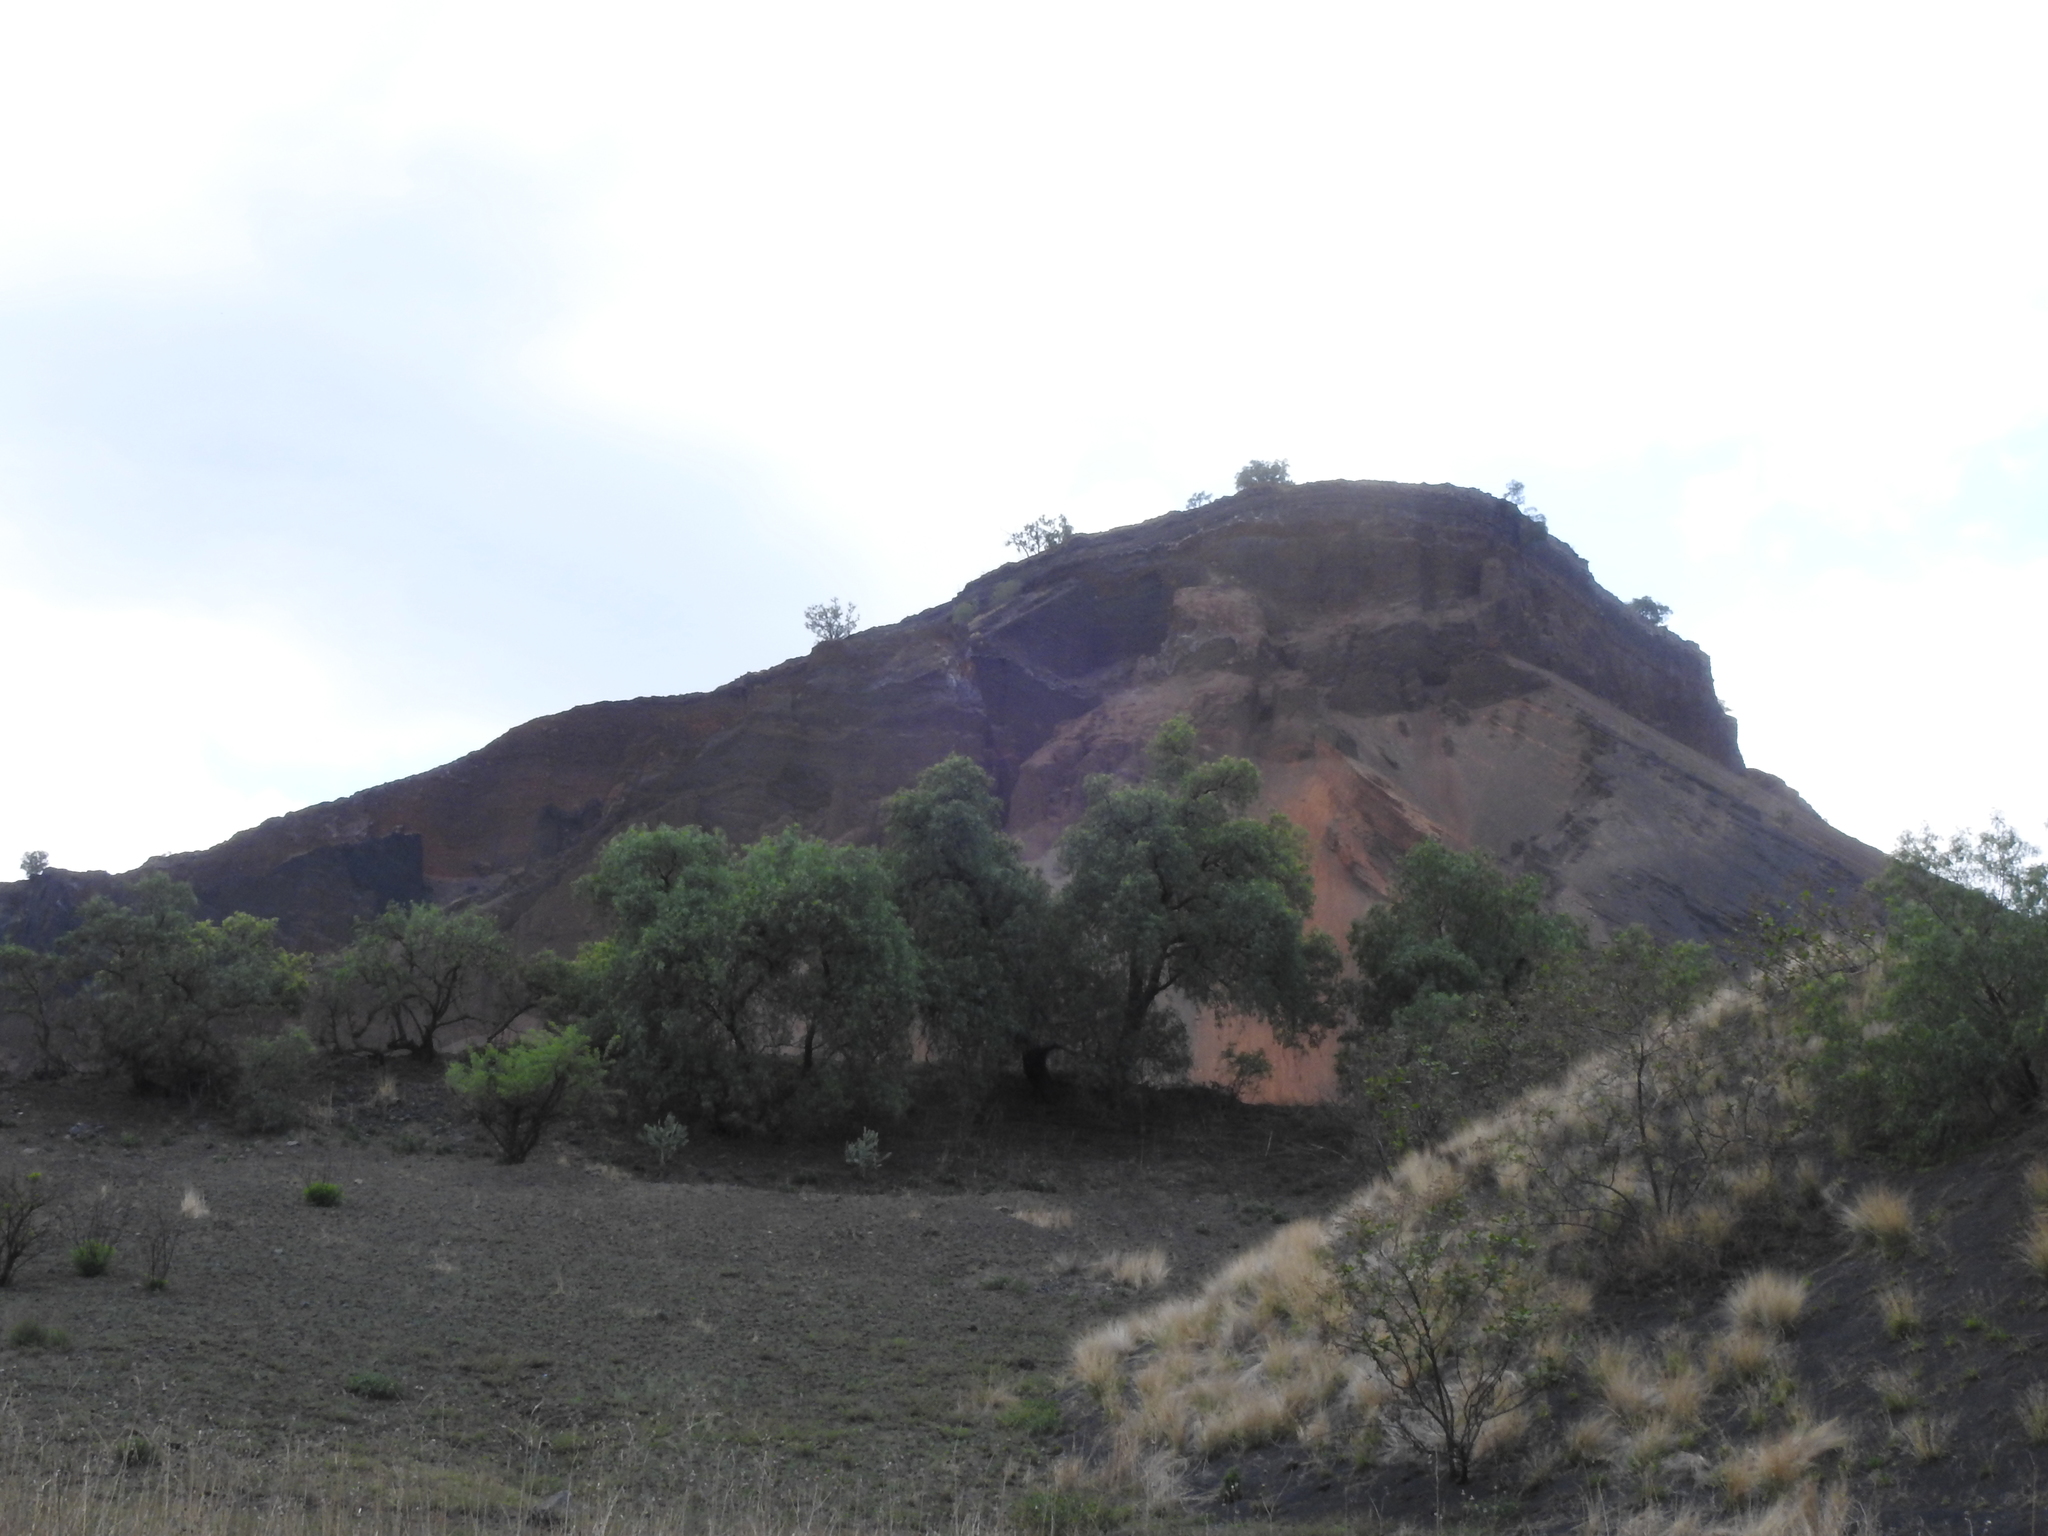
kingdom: Plantae
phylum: Tracheophyta
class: Magnoliopsida
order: Sapindales
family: Anacardiaceae
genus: Schinus
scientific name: Schinus molle
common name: Peruvian peppertree
